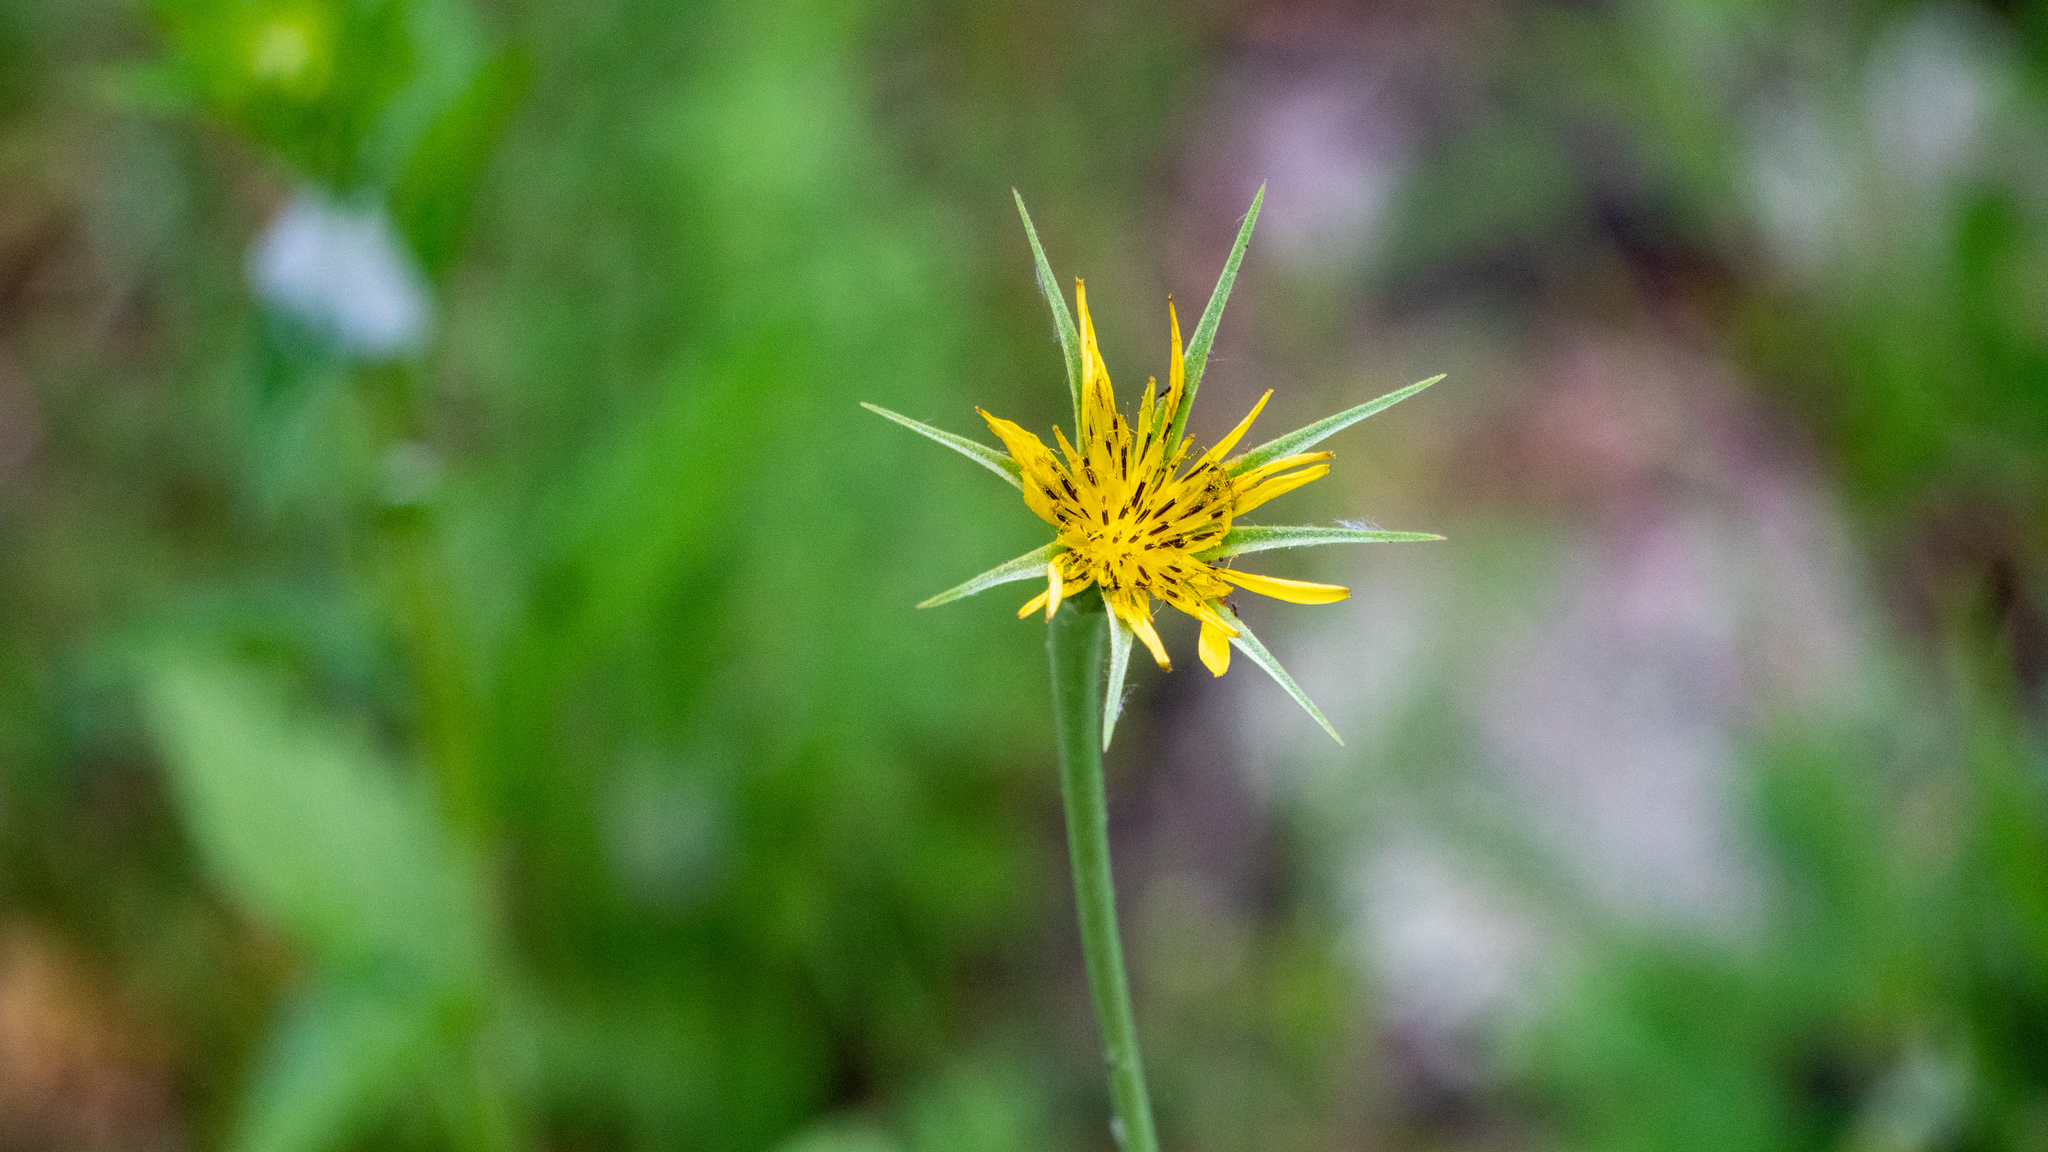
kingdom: Plantae
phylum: Tracheophyta
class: Magnoliopsida
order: Asterales
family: Asteraceae
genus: Tragopogon
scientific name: Tragopogon dubius
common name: Yellow salsify
